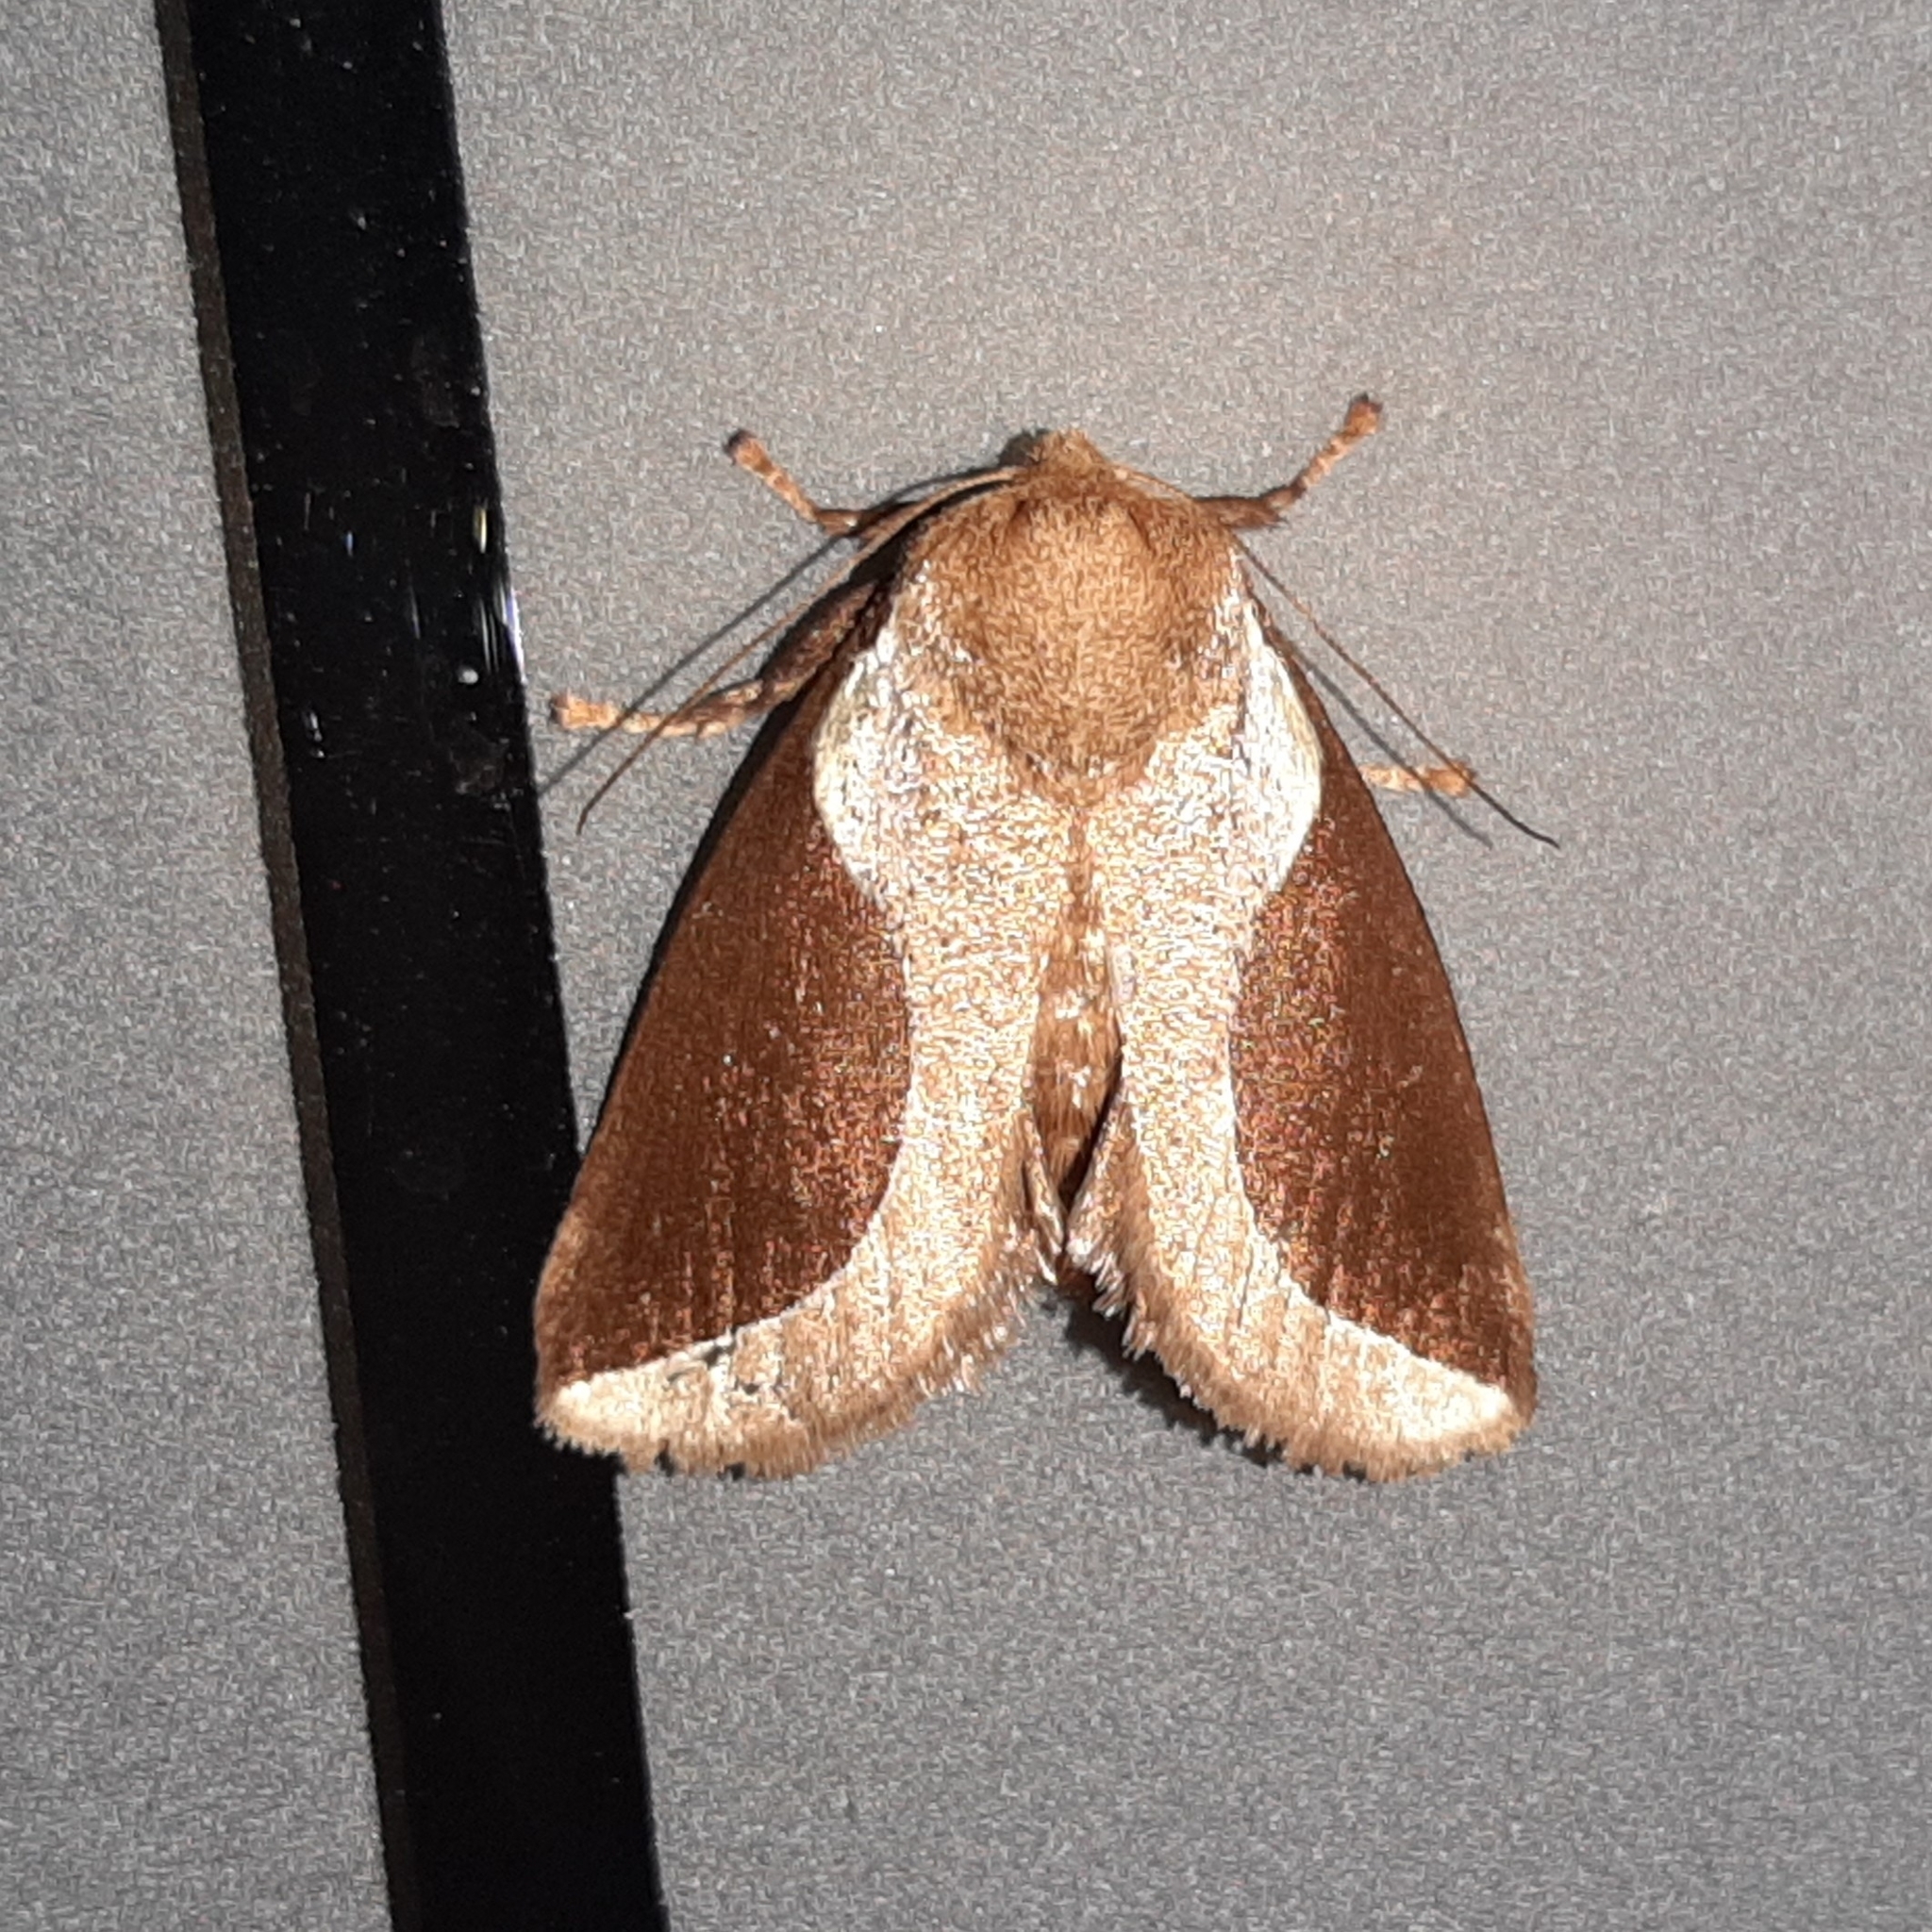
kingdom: Animalia
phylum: Arthropoda
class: Insecta
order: Lepidoptera
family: Limacodidae
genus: Prolimacodes
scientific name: Prolimacodes badia
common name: Skiff moth
